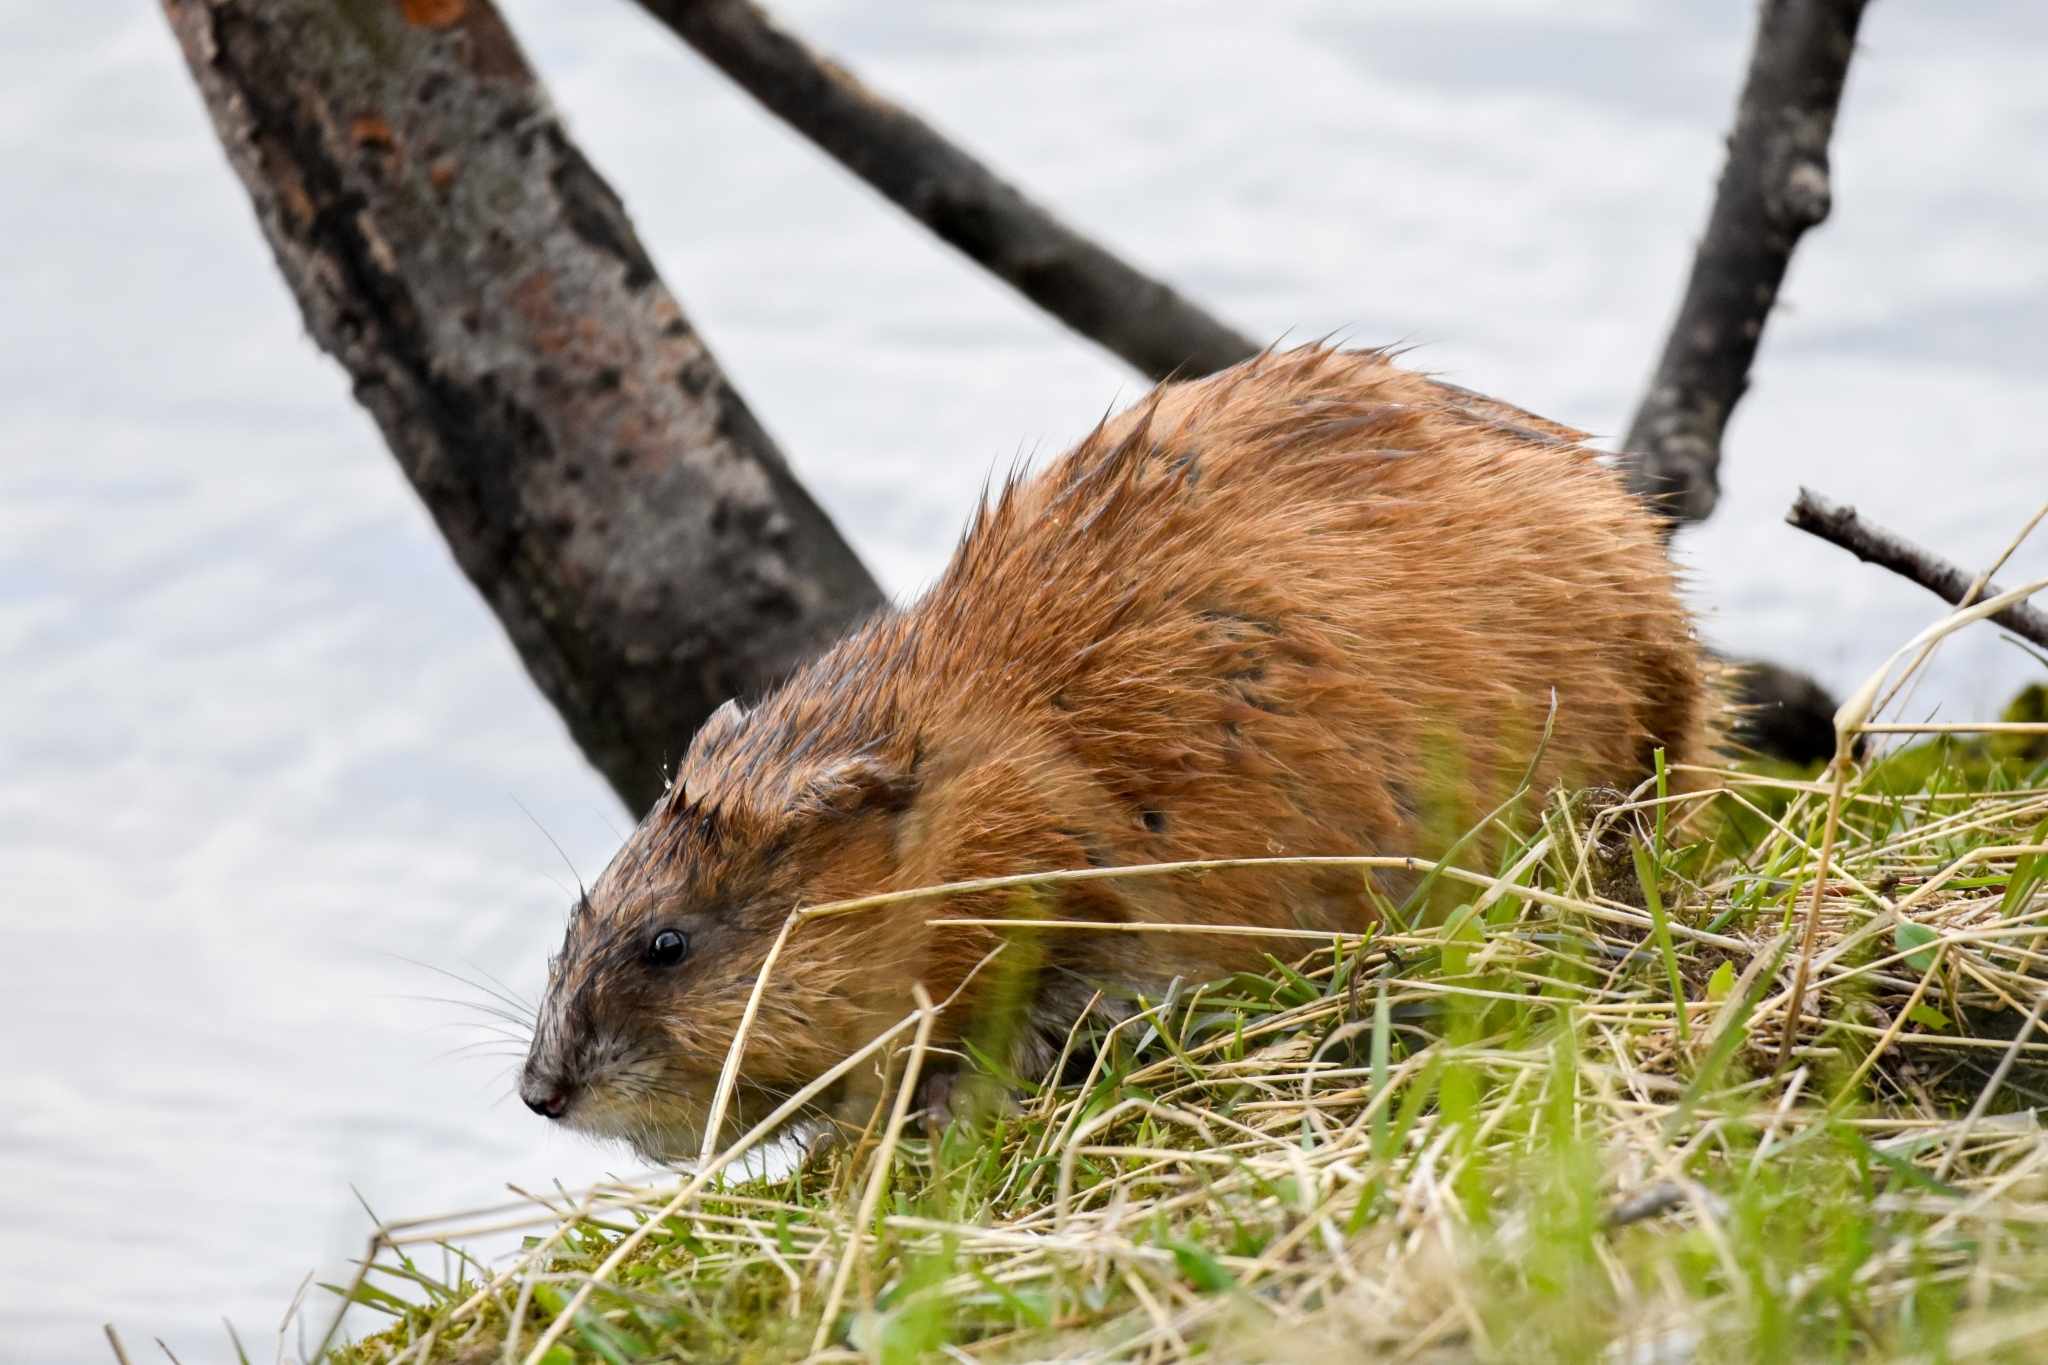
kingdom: Animalia
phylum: Chordata
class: Mammalia
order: Rodentia
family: Cricetidae
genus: Ondatra
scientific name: Ondatra zibethicus
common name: Muskrat
